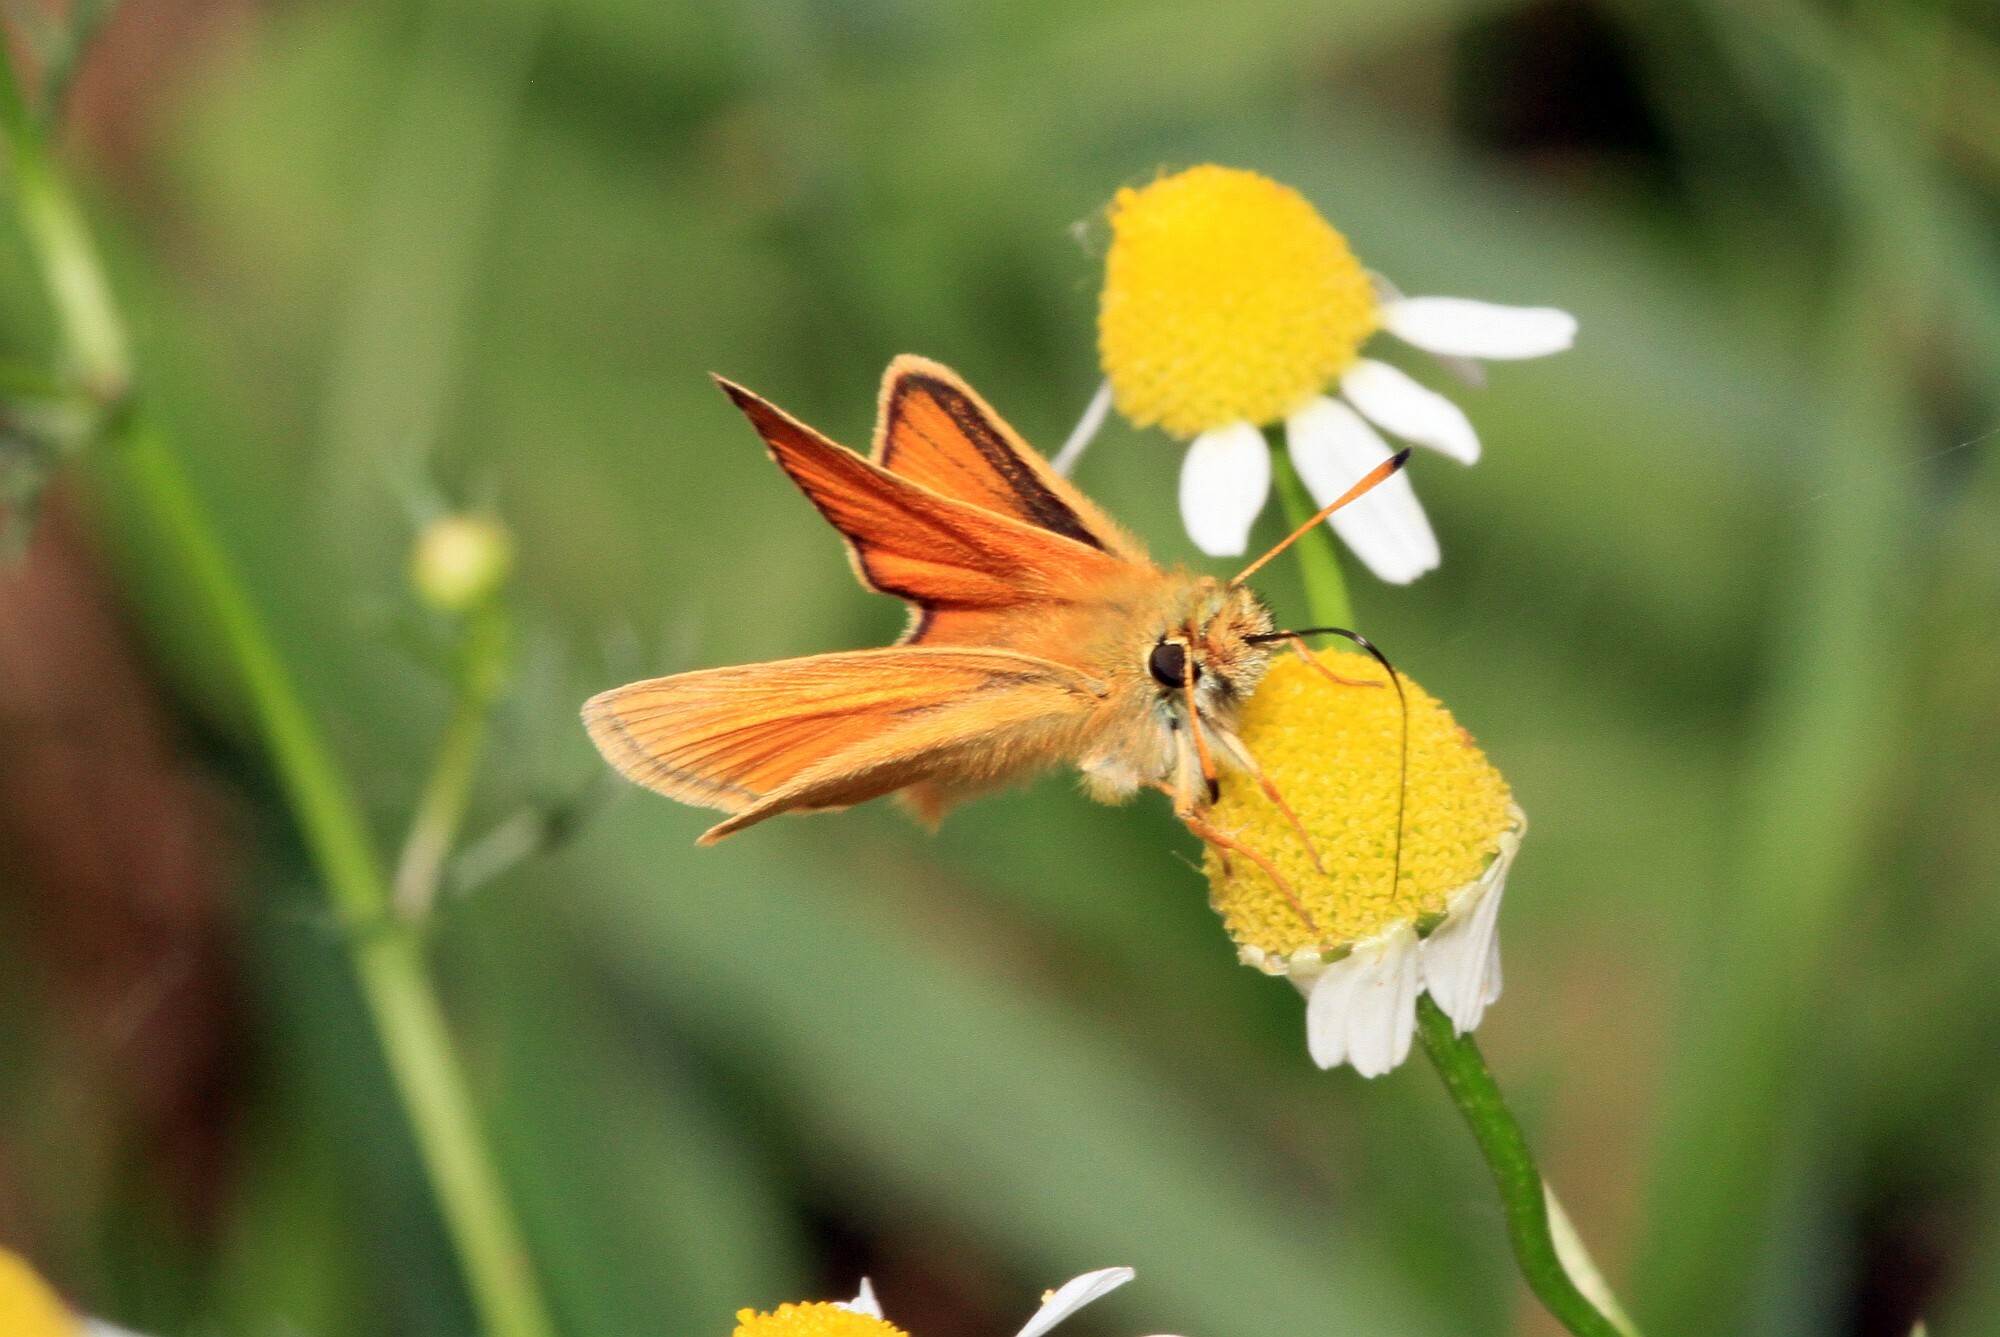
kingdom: Animalia
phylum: Arthropoda
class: Insecta
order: Lepidoptera
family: Hesperiidae
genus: Thymelicus
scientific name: Thymelicus lineola
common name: Essex skipper
